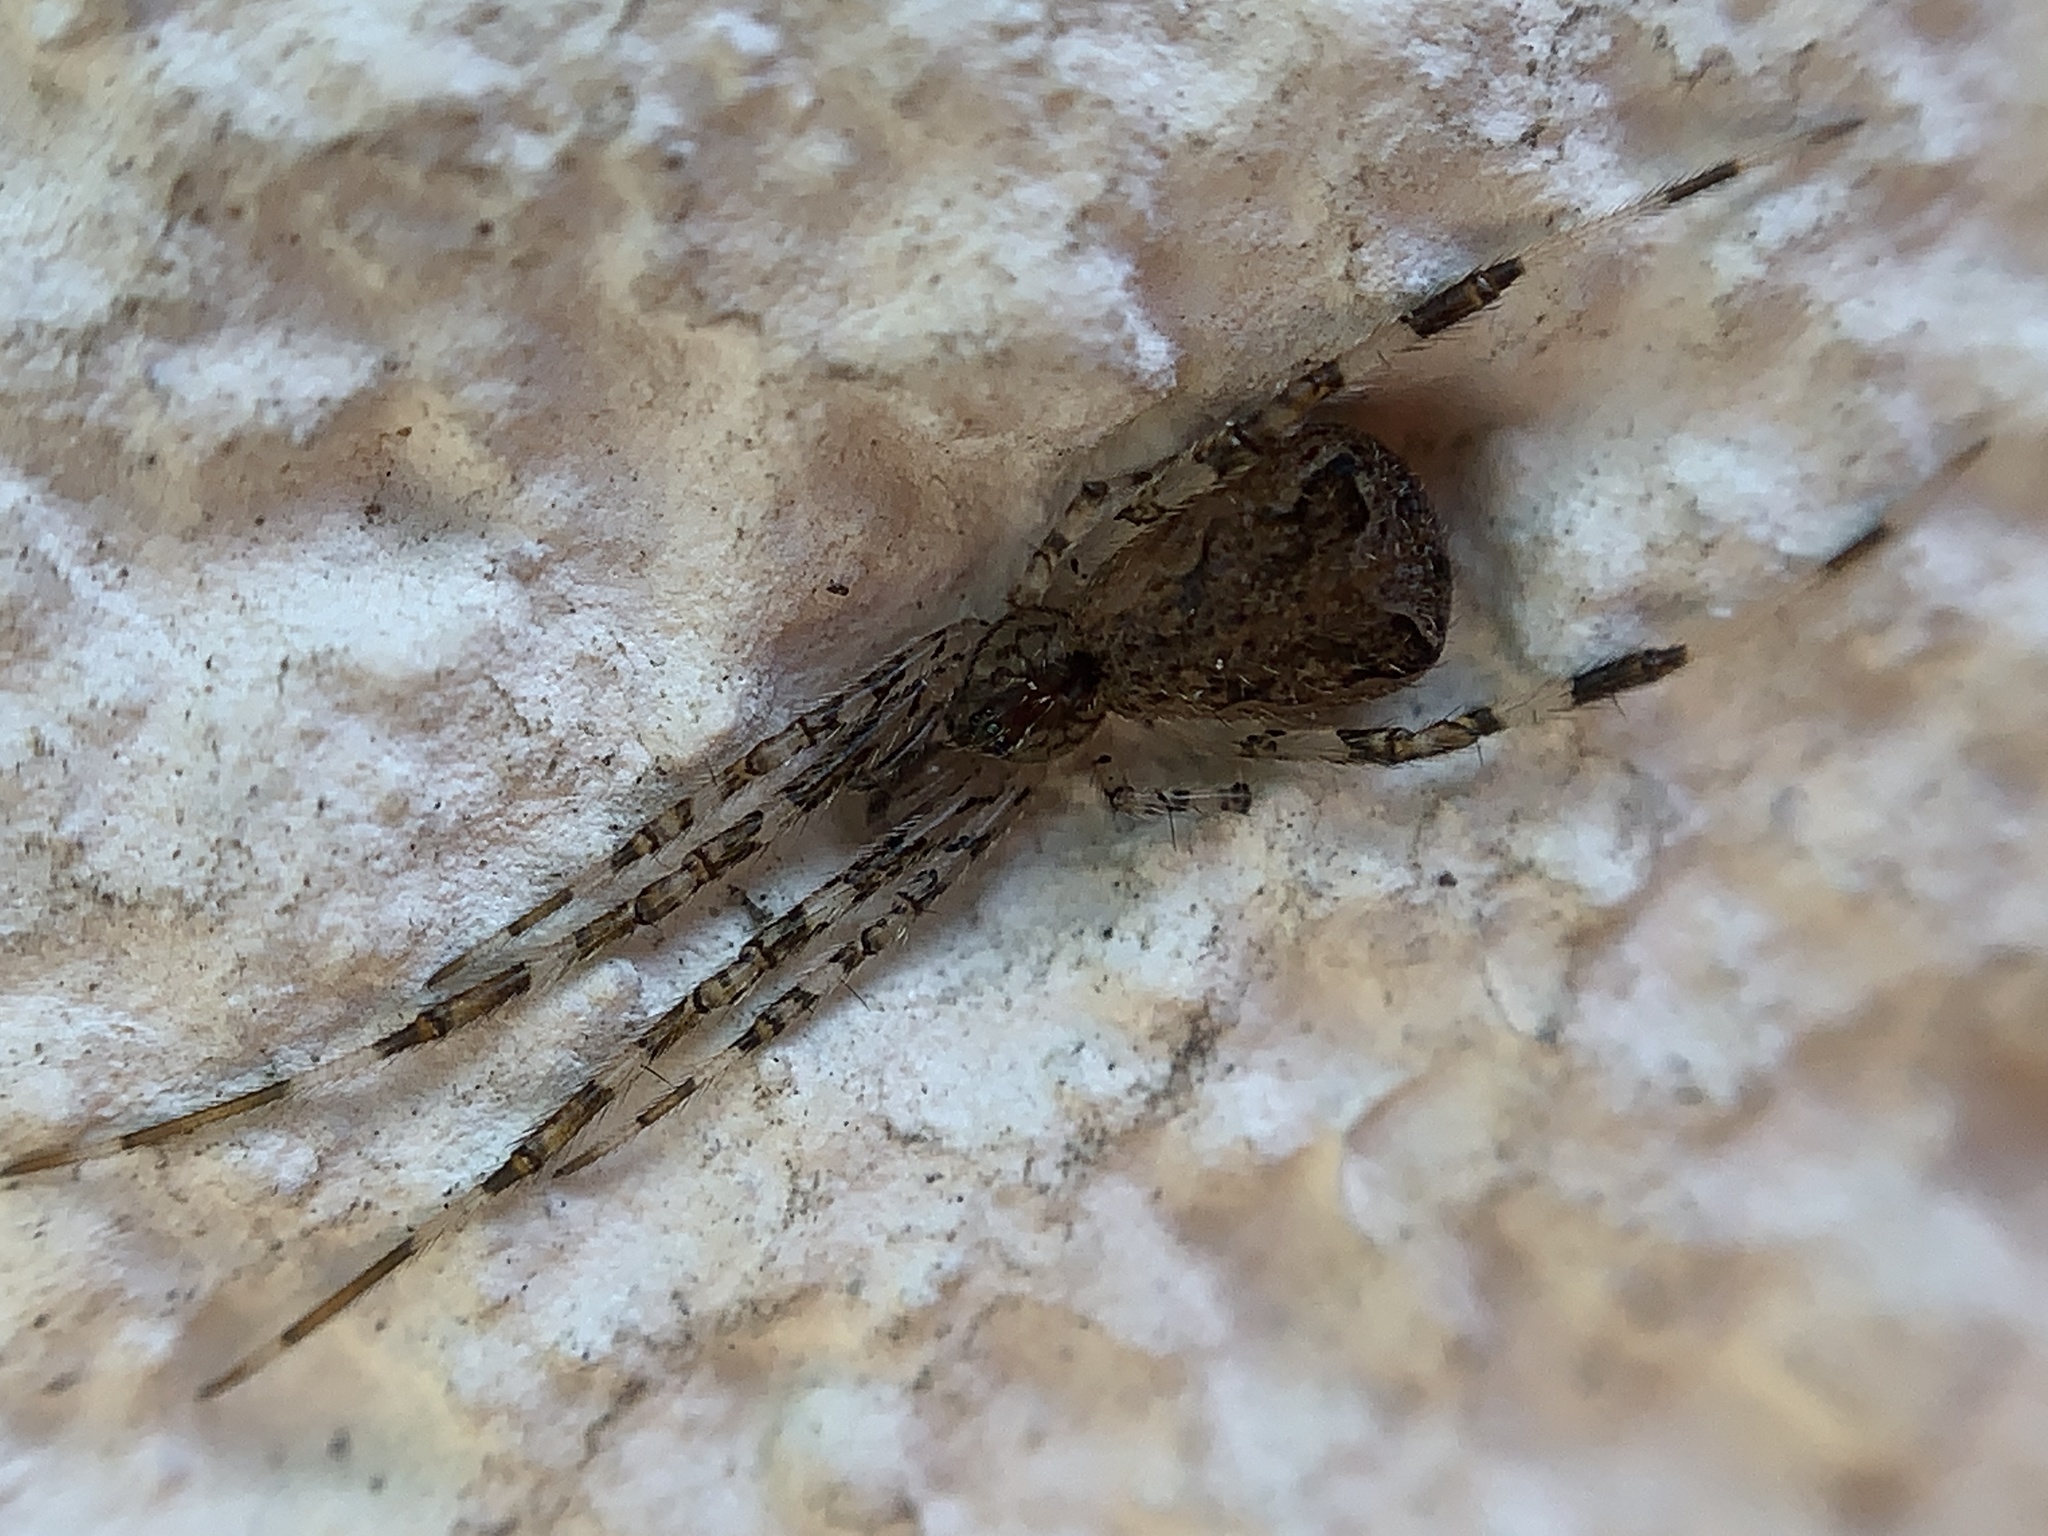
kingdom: Animalia
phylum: Arthropoda
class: Arachnida
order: Araneae
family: Theridiidae
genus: Episinus
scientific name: Episinus maculipes
